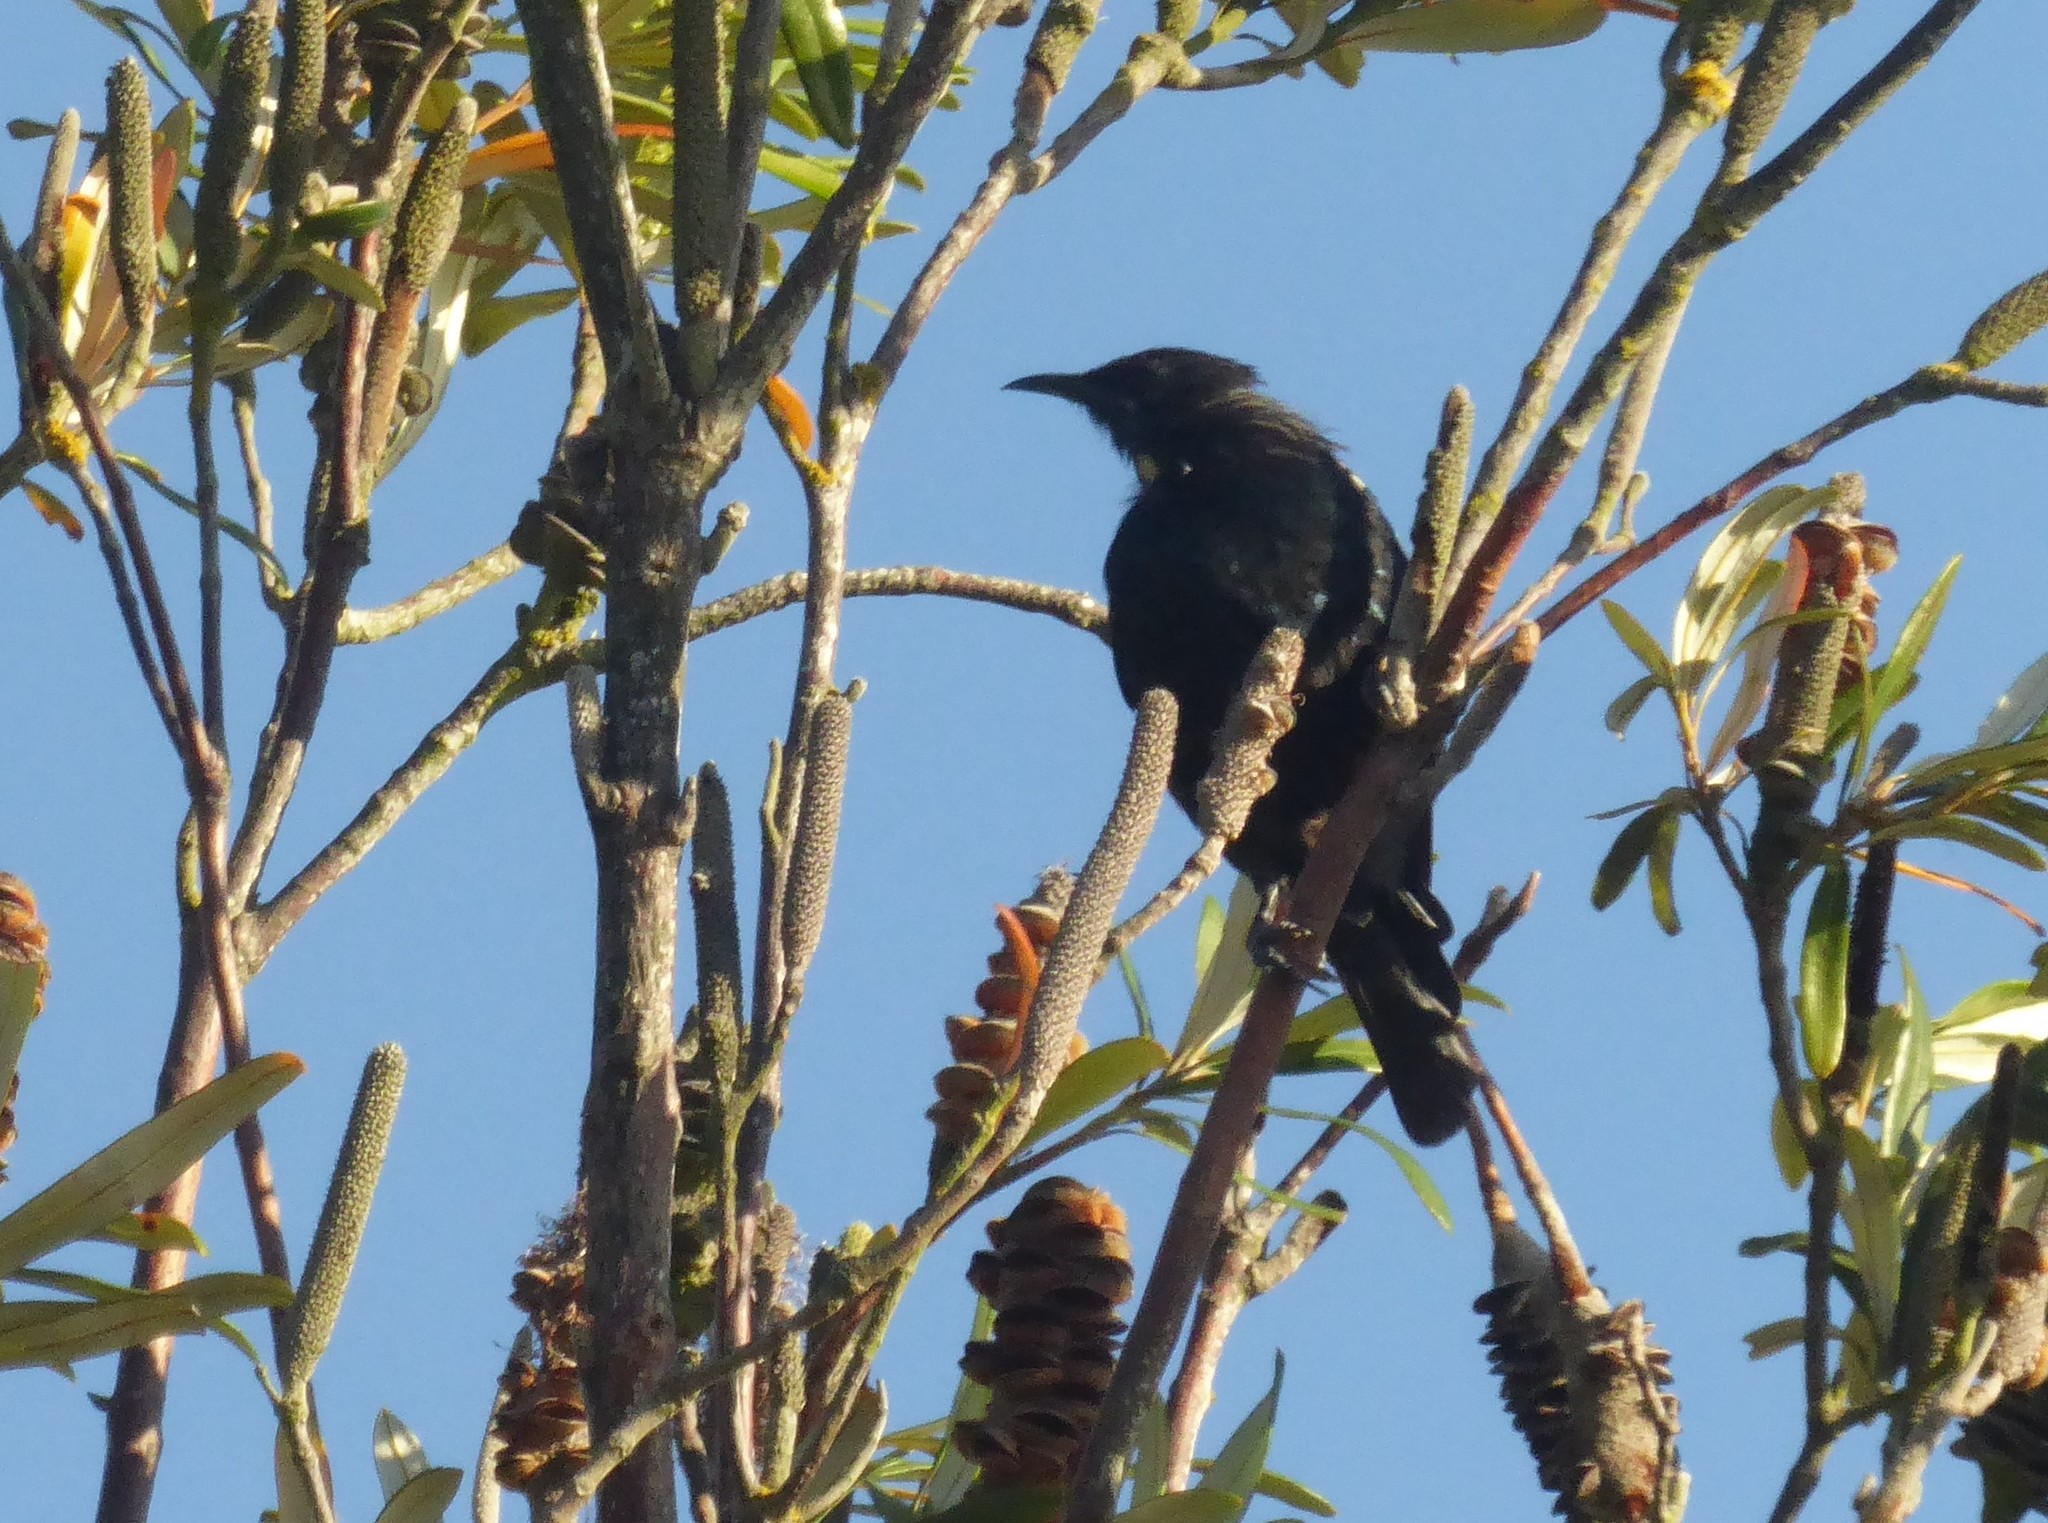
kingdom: Animalia
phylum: Chordata
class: Aves
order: Passeriformes
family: Meliphagidae
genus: Prosthemadera
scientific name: Prosthemadera novaeseelandiae
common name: Tui
